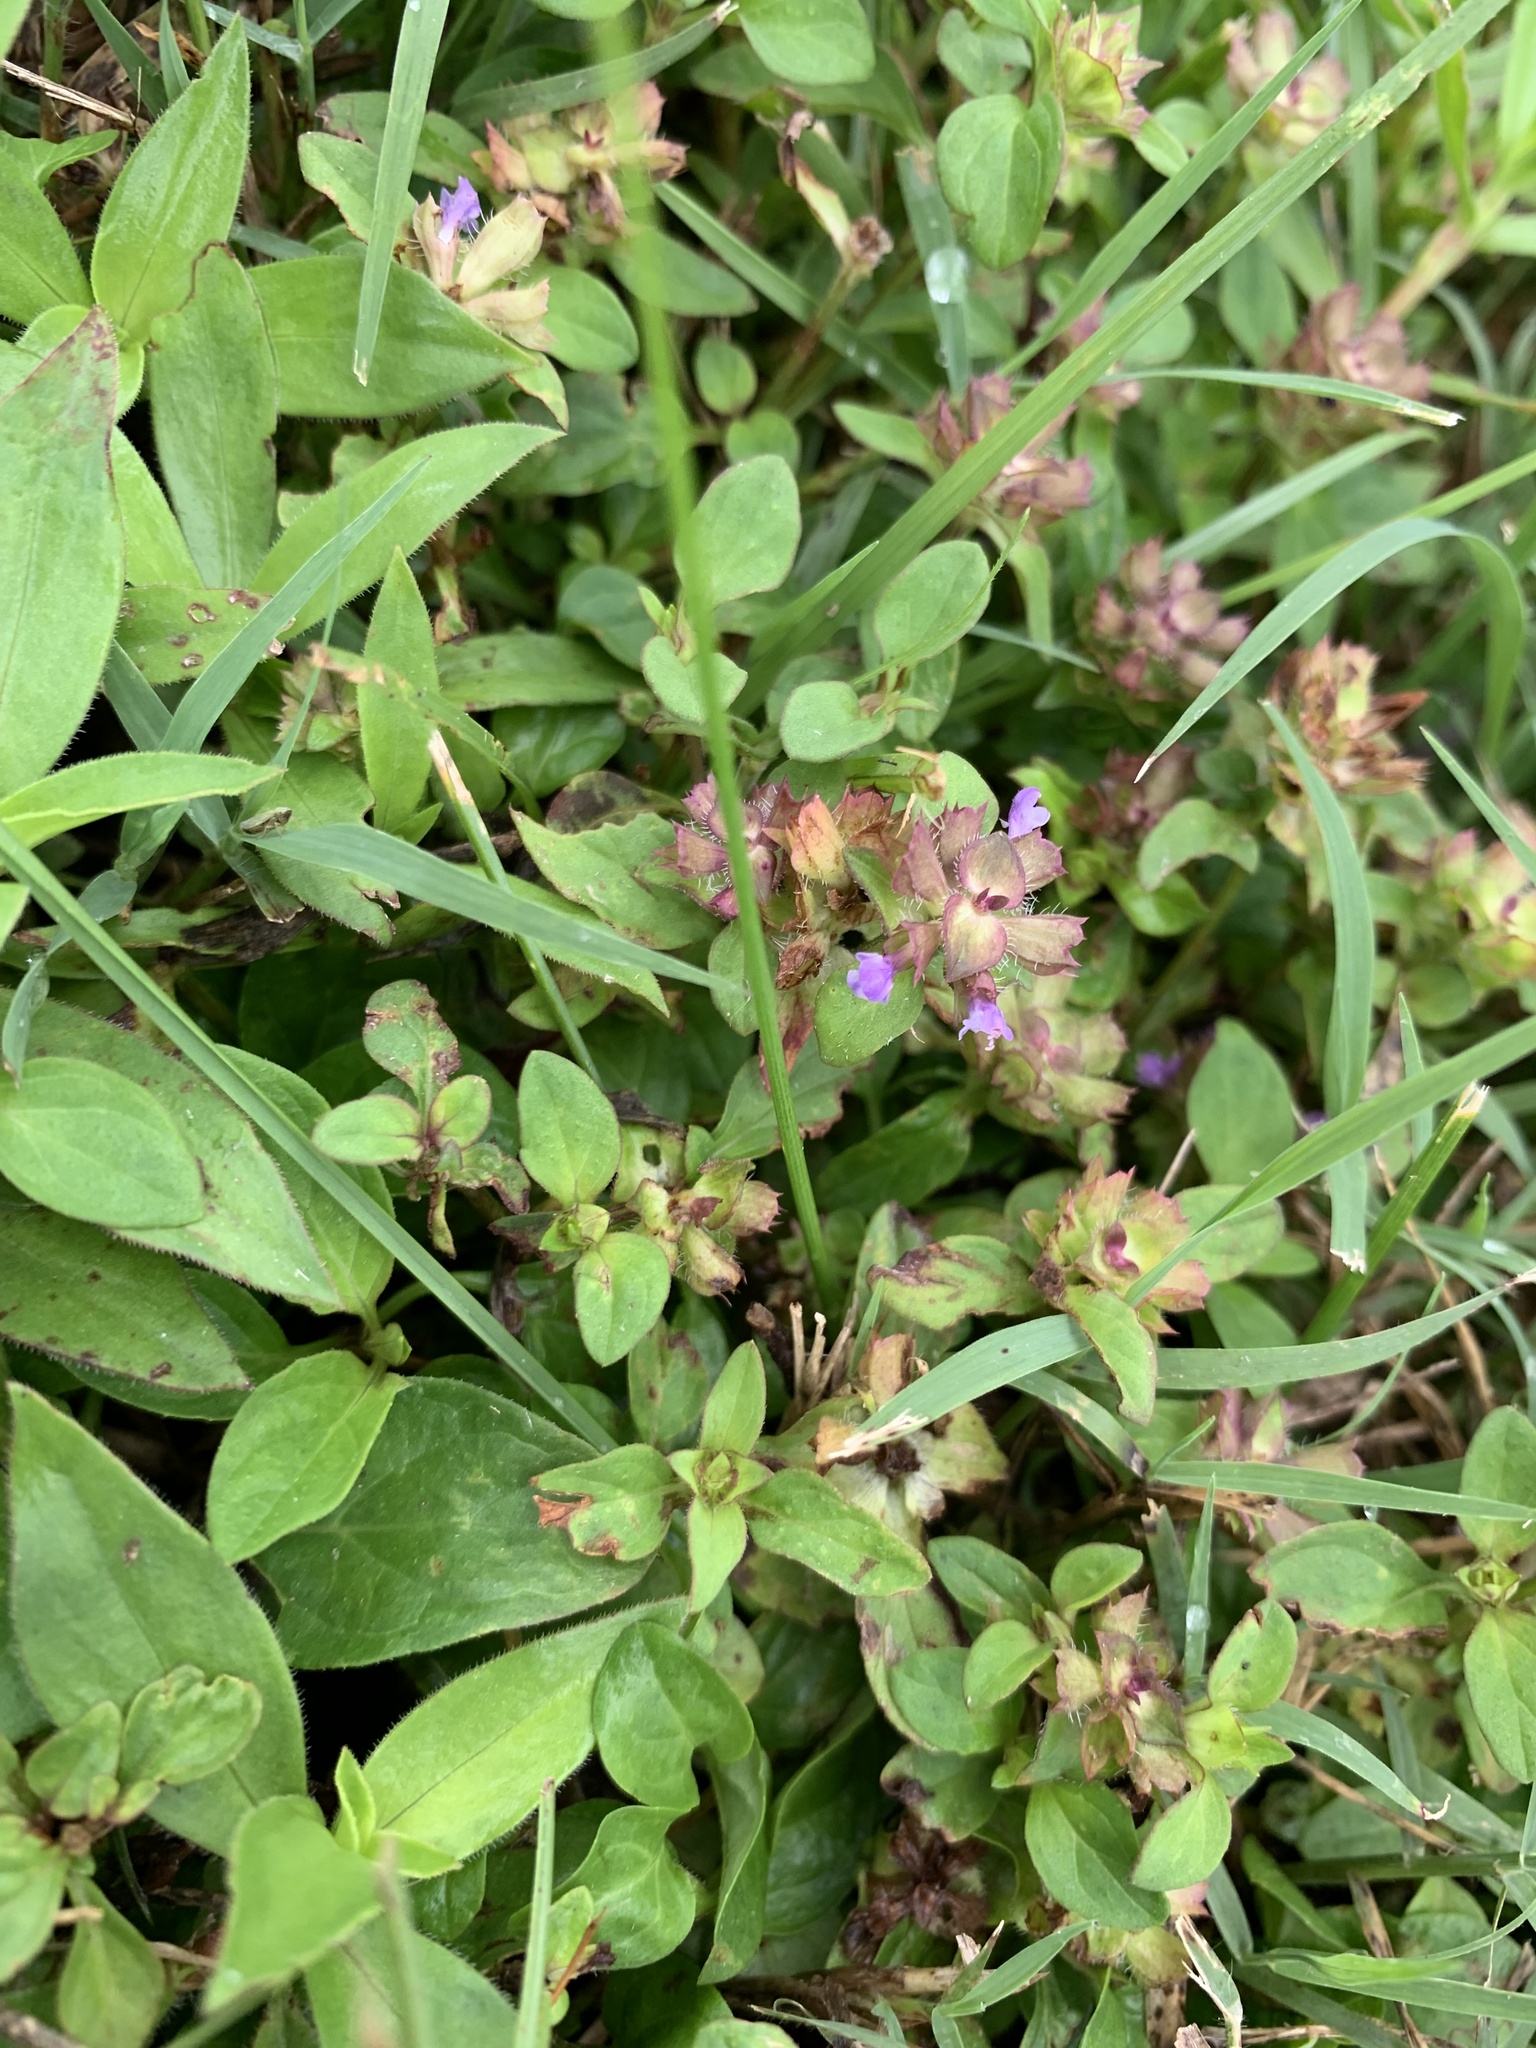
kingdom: Plantae
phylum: Tracheophyta
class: Magnoliopsida
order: Lamiales
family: Lamiaceae
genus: Prunella
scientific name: Prunella vulgaris
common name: Heal-all
